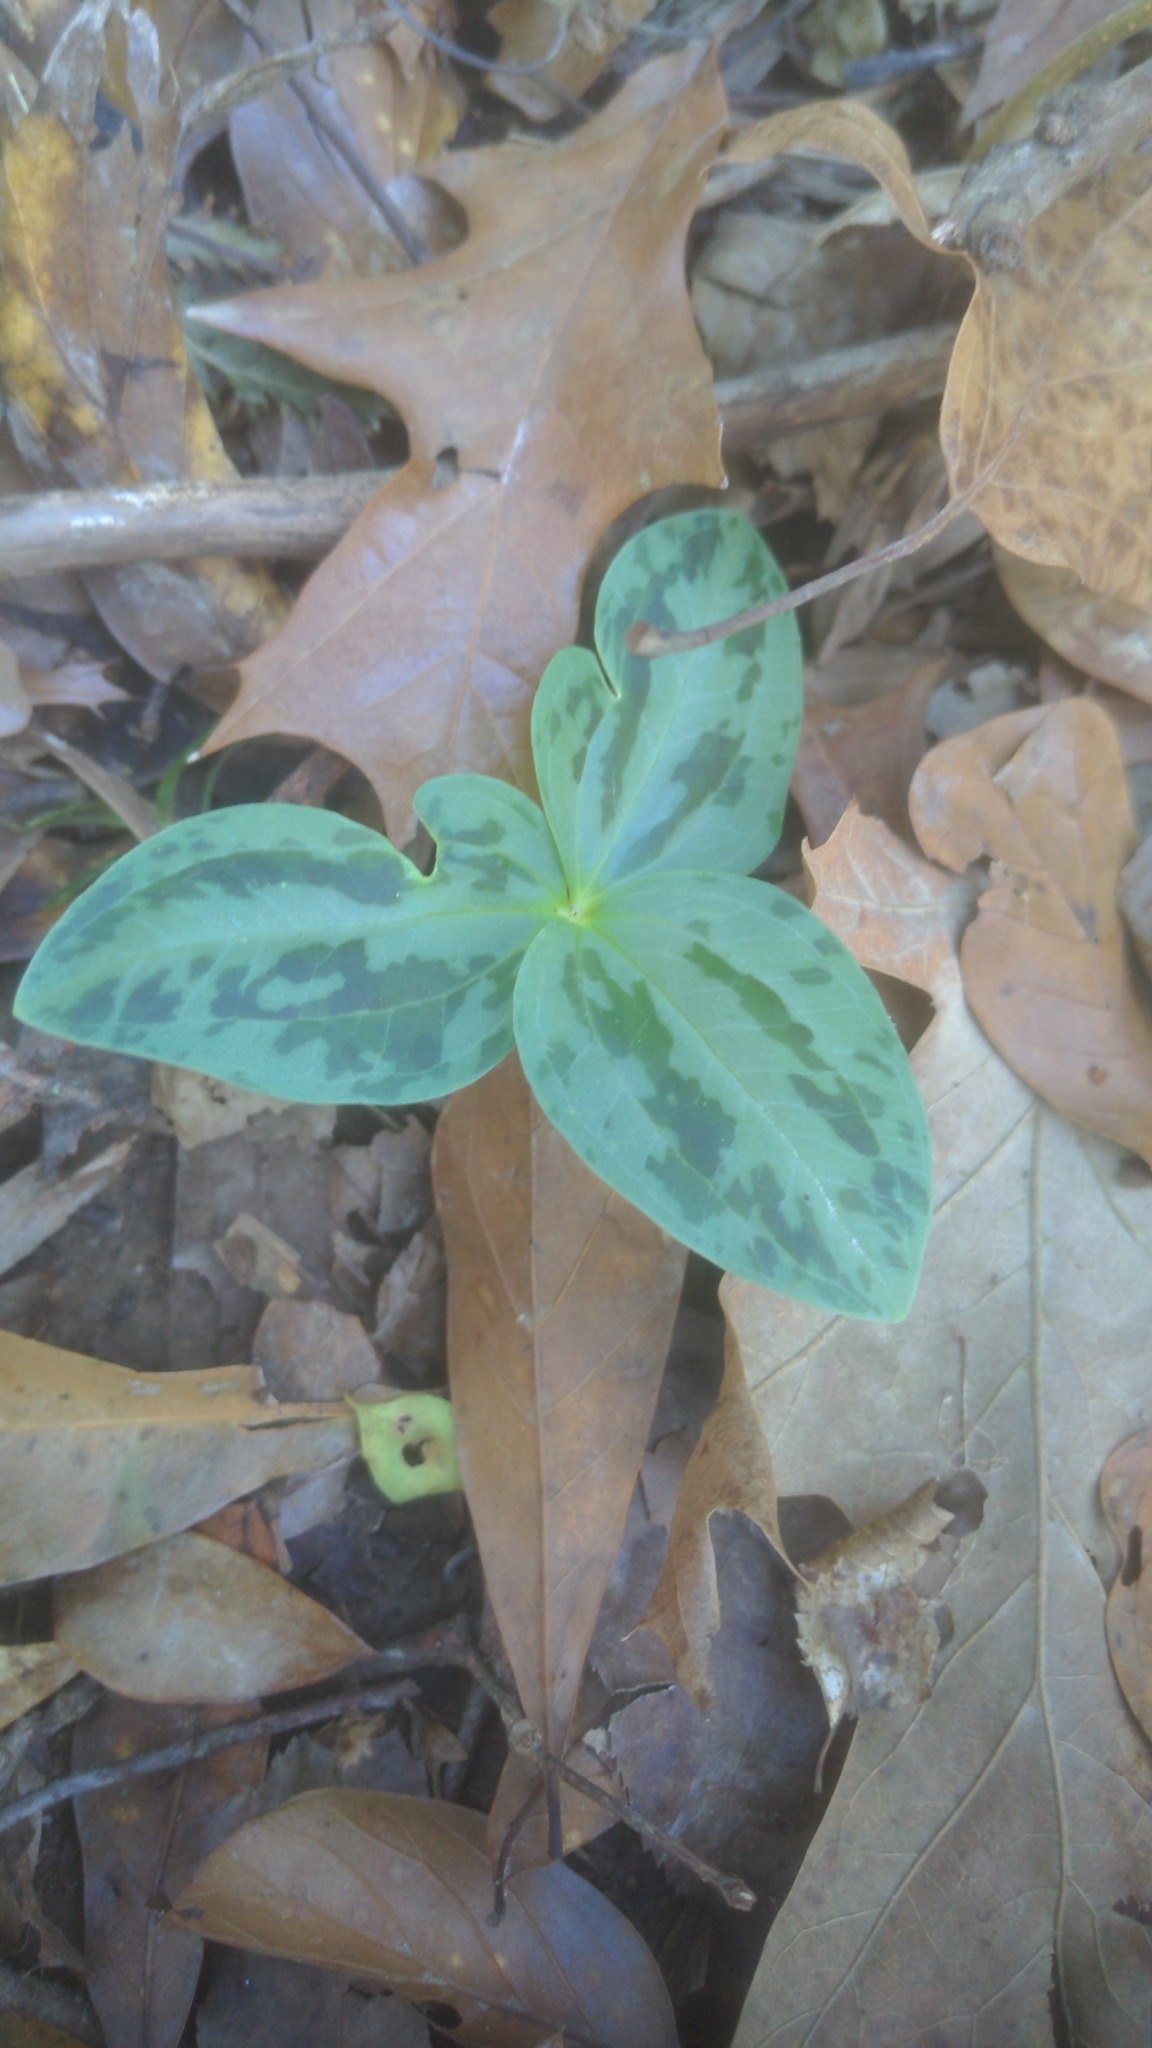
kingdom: Plantae
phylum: Tracheophyta
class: Liliopsida
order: Liliales
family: Melanthiaceae
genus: Trillium
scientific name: Trillium foetidissimum
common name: Mississippi river trillium
